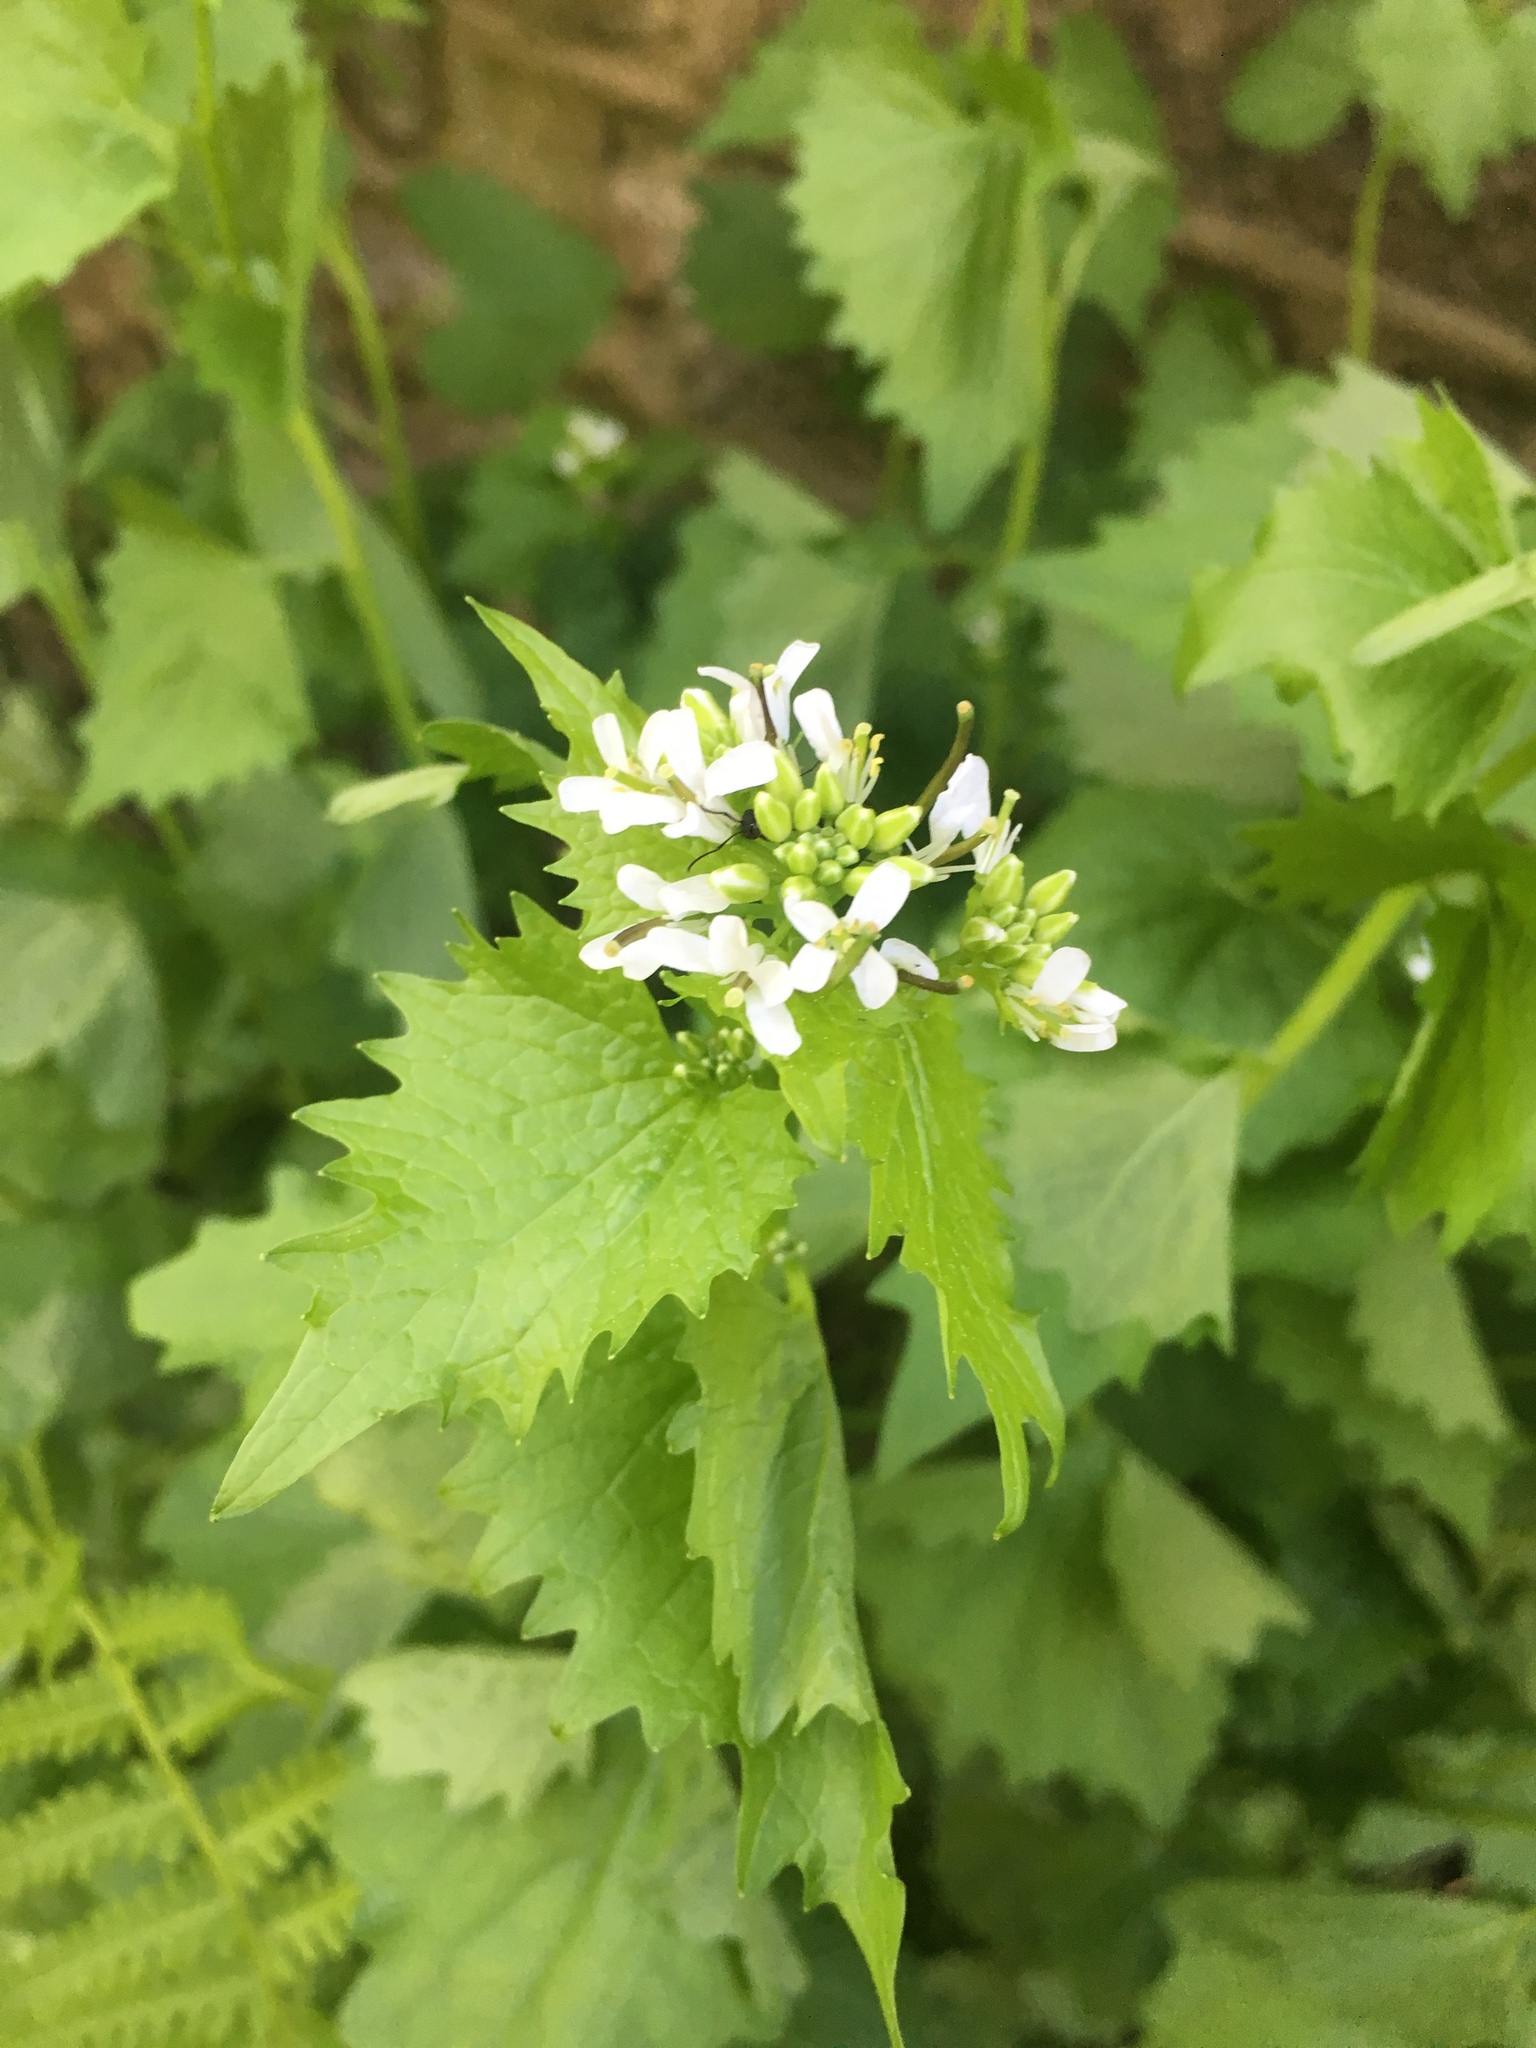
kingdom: Plantae
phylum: Tracheophyta
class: Magnoliopsida
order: Brassicales
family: Brassicaceae
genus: Alliaria
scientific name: Alliaria petiolata
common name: Garlic mustard
